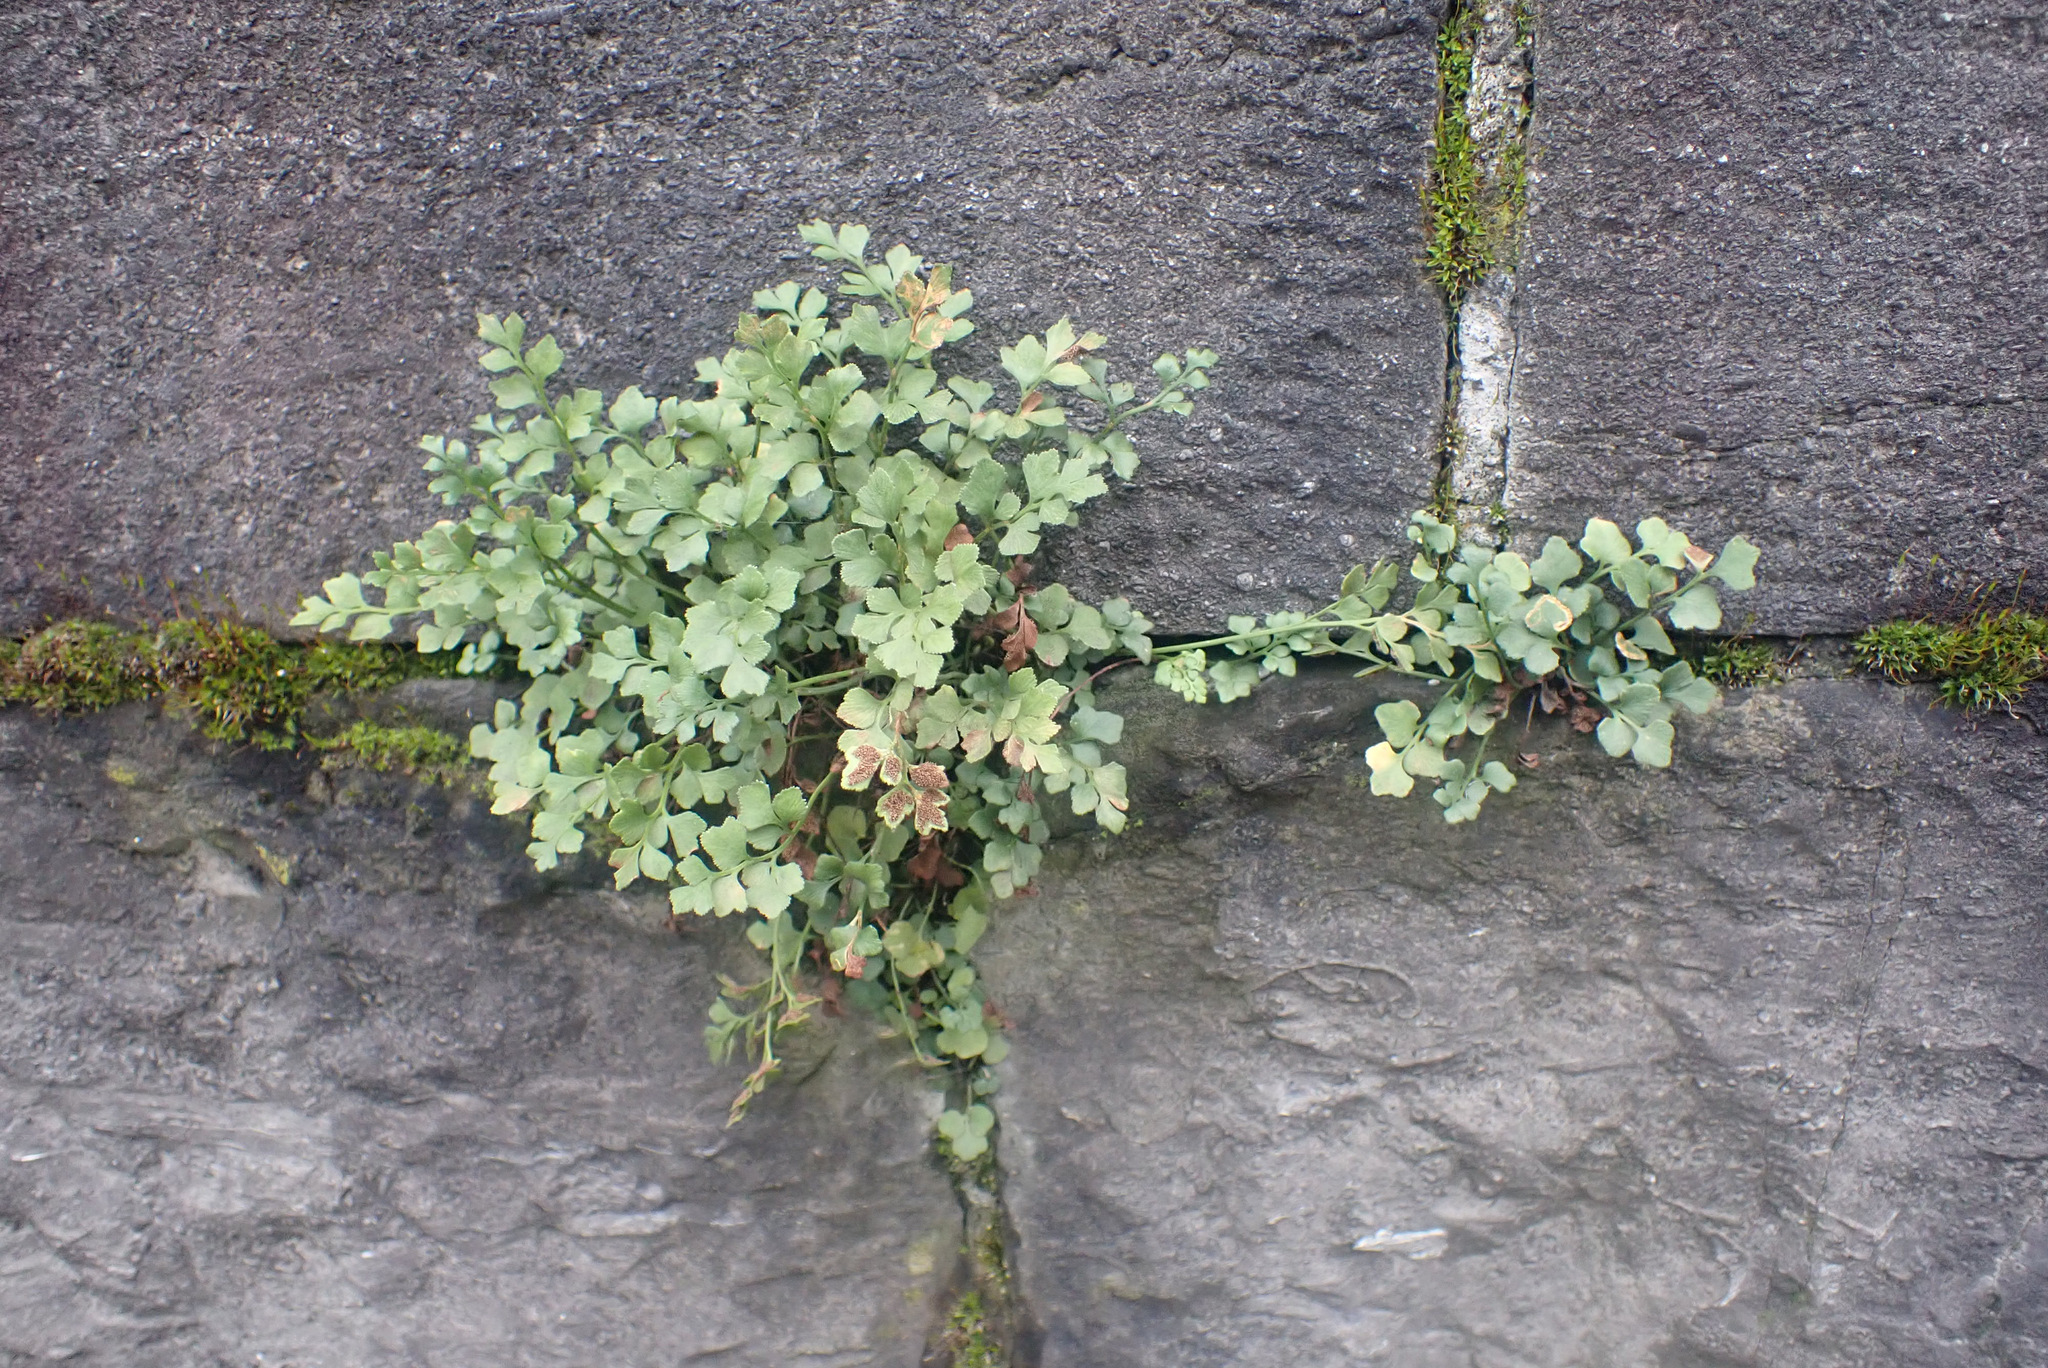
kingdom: Plantae
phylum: Tracheophyta
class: Polypodiopsida
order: Polypodiales
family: Aspleniaceae
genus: Asplenium
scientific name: Asplenium ruta-muraria
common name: Wall-rue
